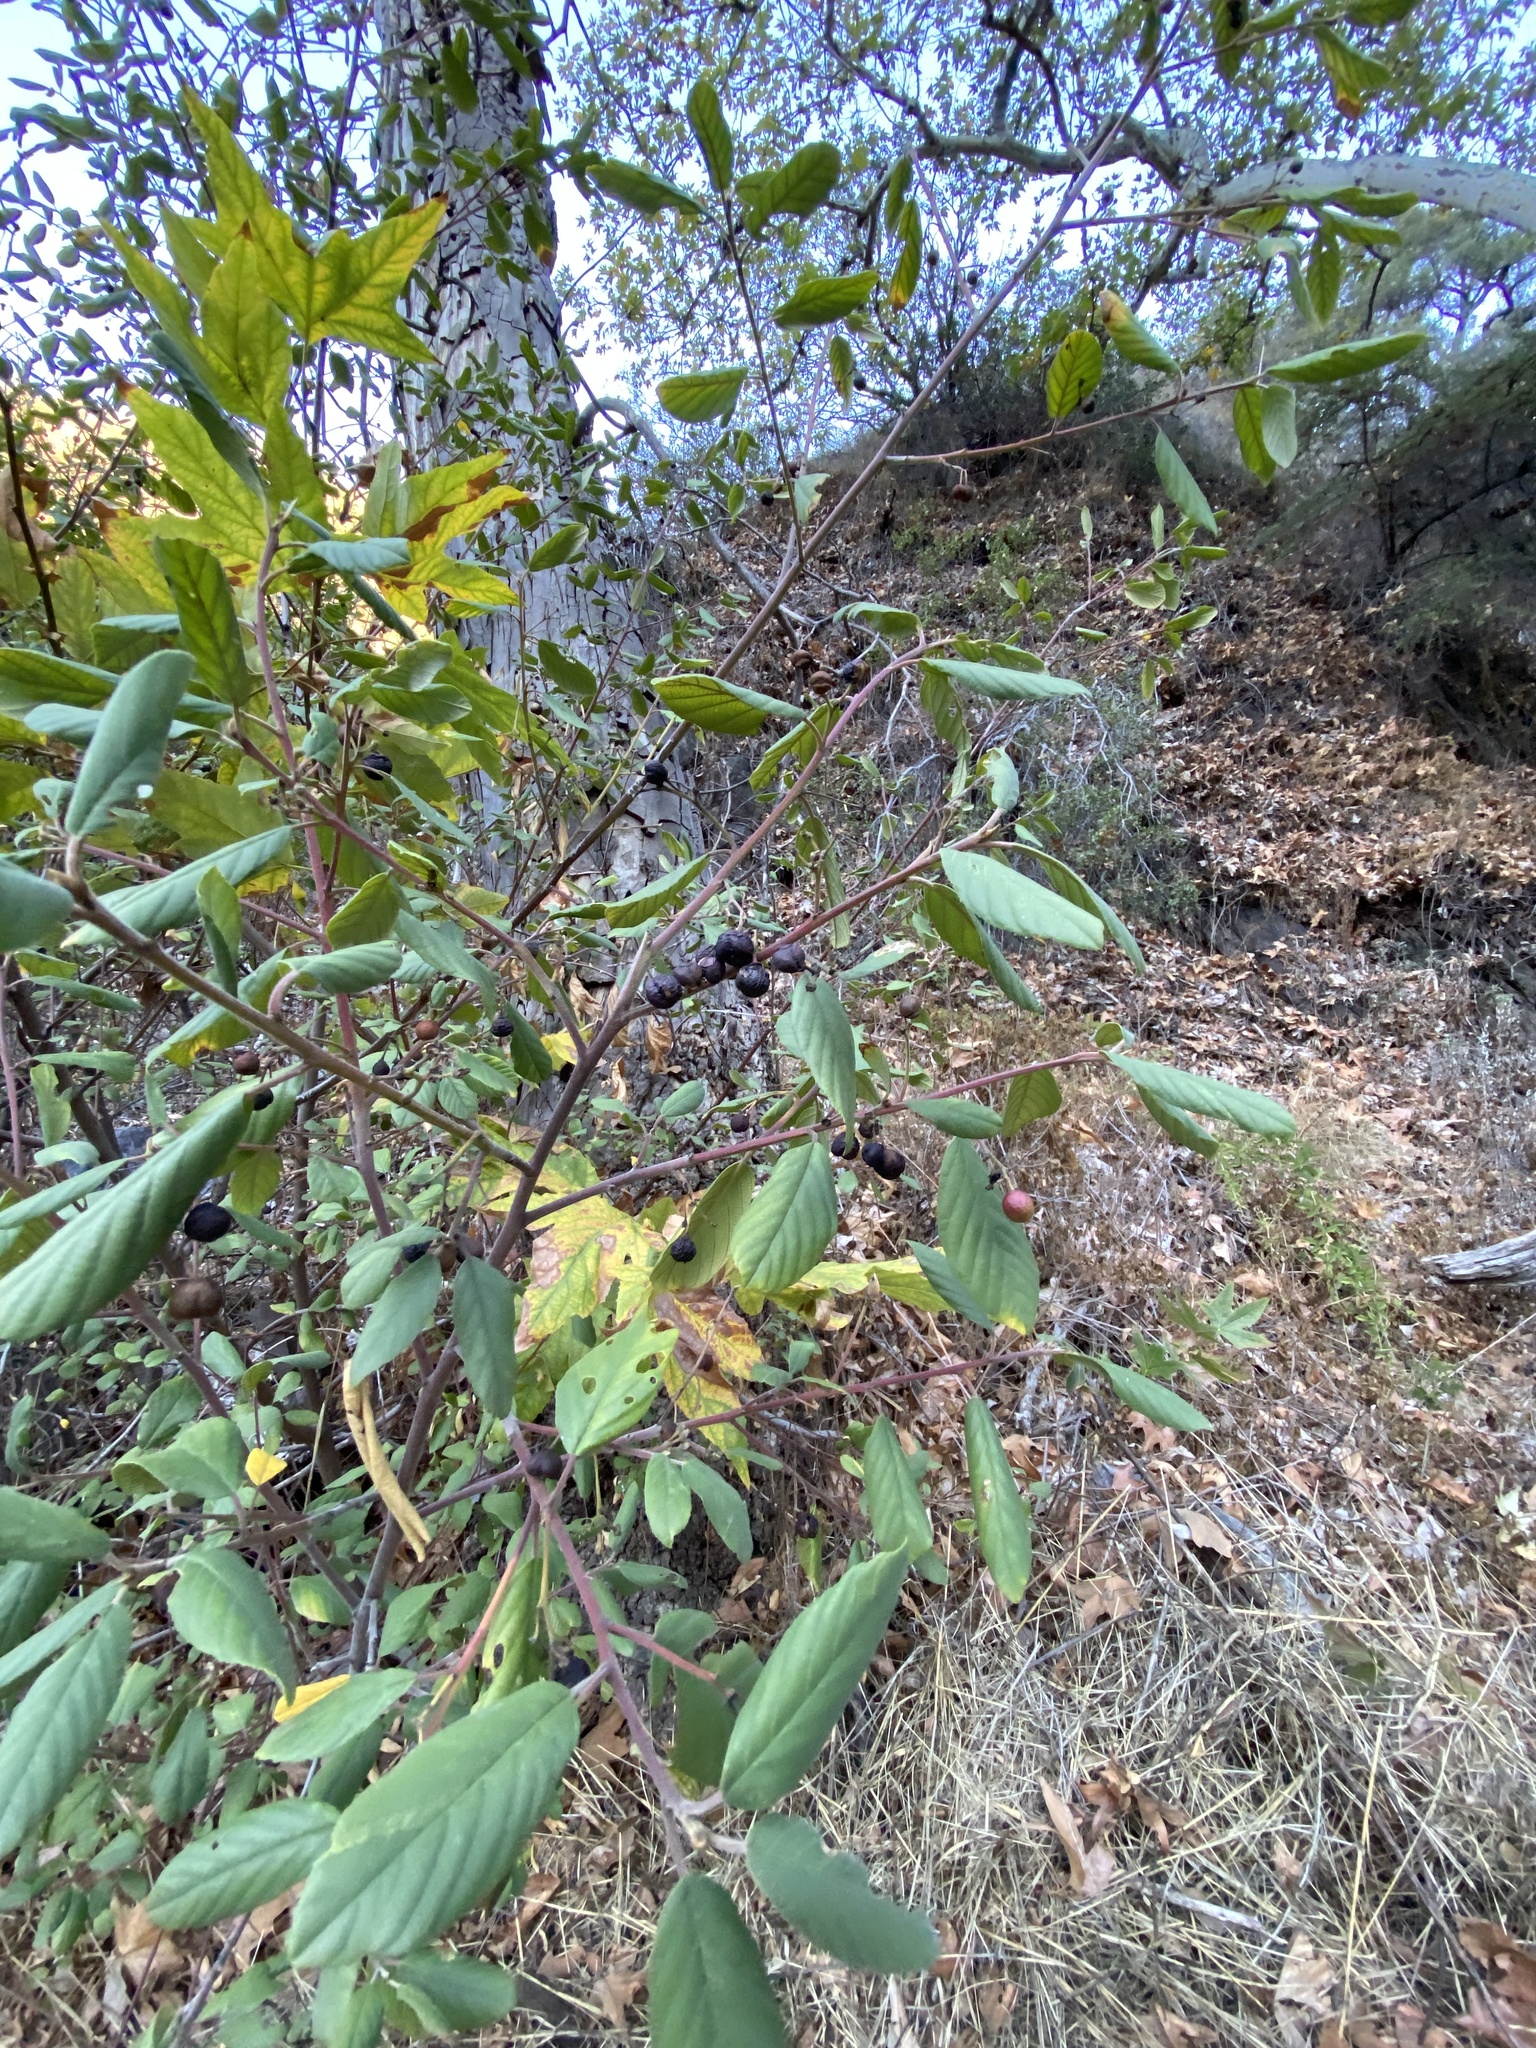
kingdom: Plantae
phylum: Tracheophyta
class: Magnoliopsida
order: Rosales
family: Rhamnaceae
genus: Frangula
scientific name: Frangula californica
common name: California buckthorn
